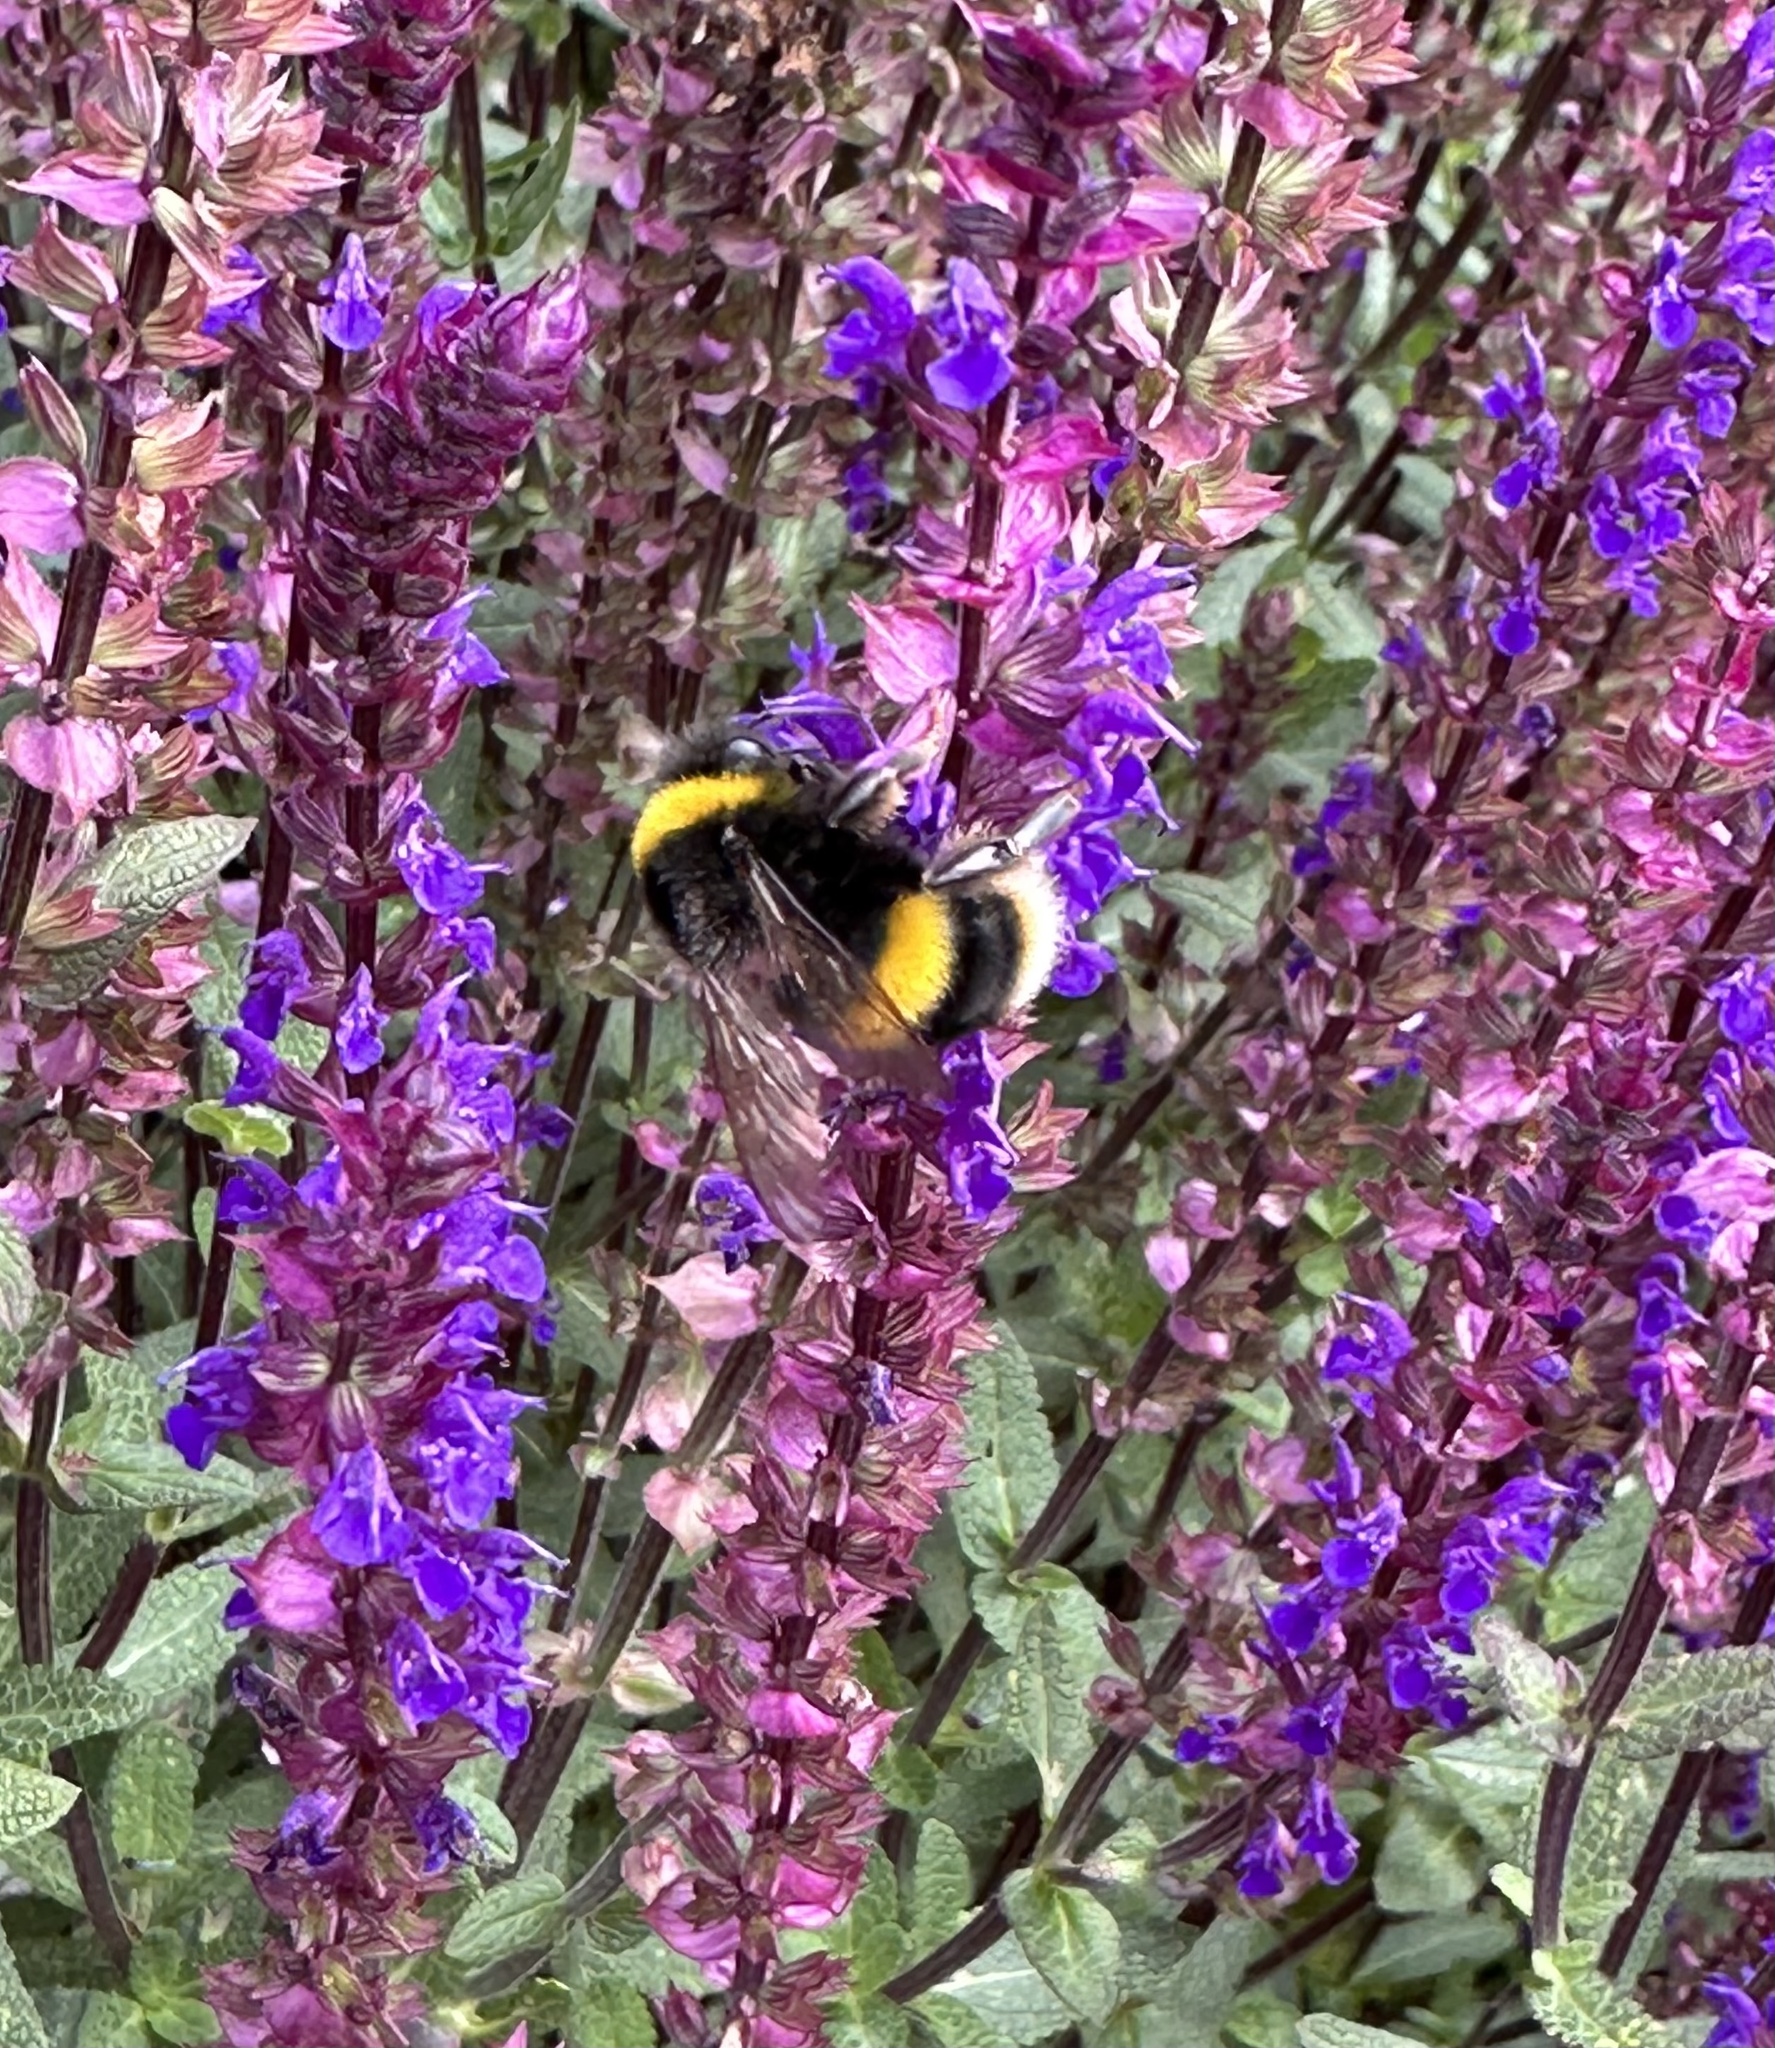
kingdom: Animalia
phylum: Arthropoda
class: Insecta
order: Hymenoptera
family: Apidae
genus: Bombus
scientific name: Bombus terrestris
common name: Buff-tailed bumblebee
